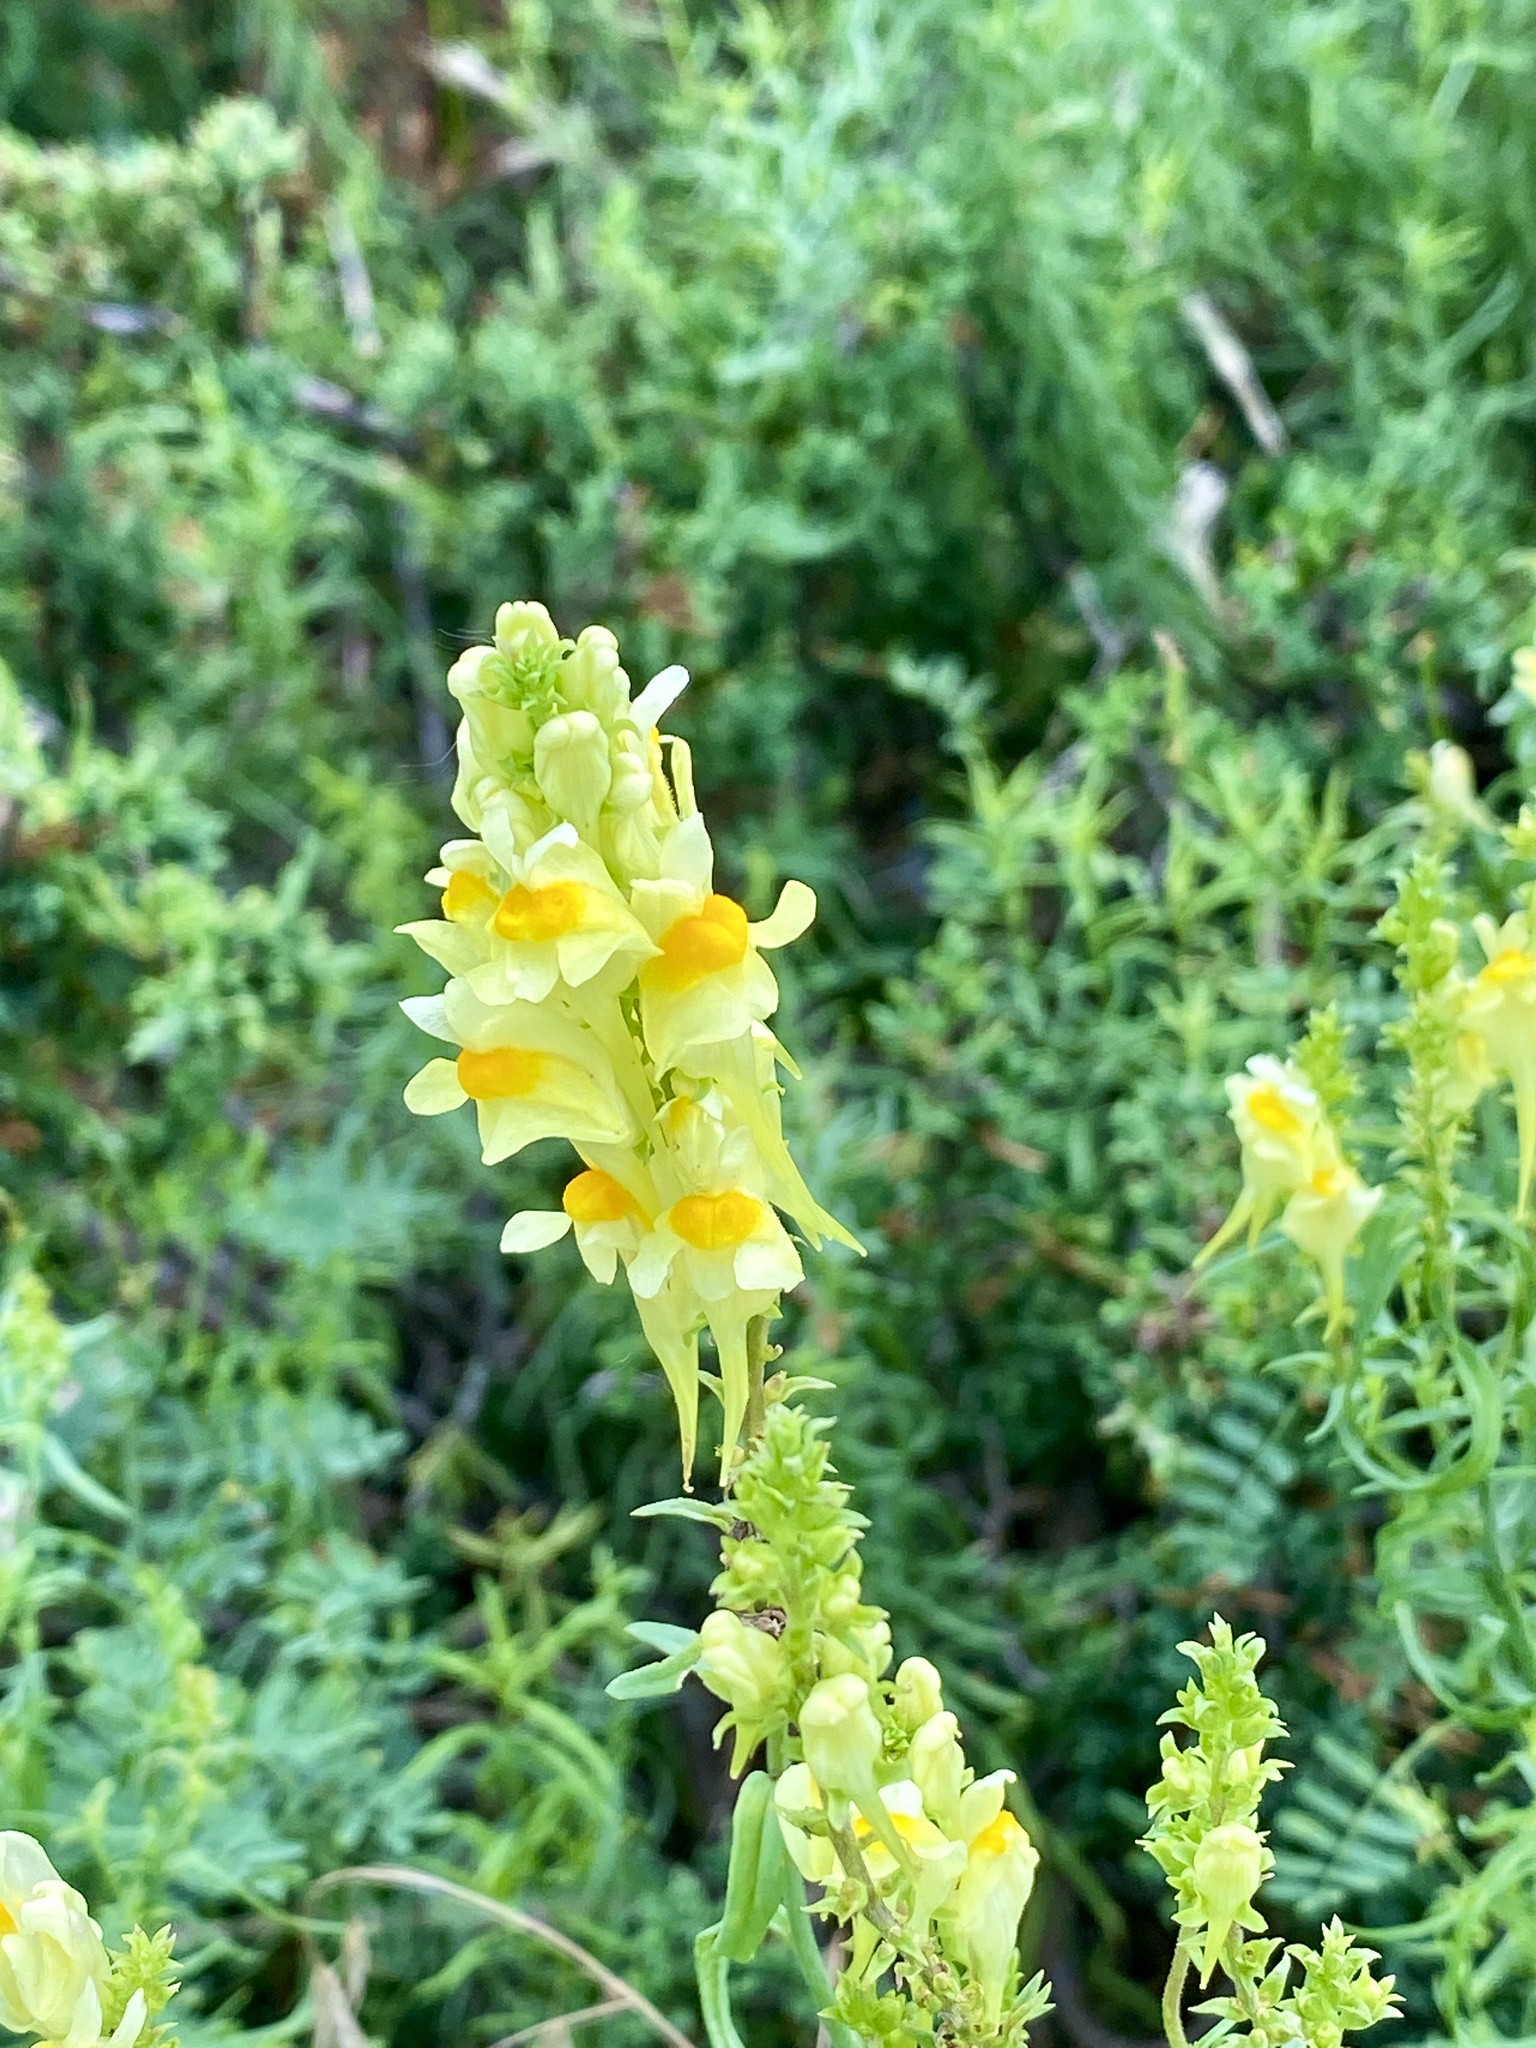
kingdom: Plantae
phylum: Tracheophyta
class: Magnoliopsida
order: Lamiales
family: Plantaginaceae
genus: Linaria
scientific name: Linaria vulgaris
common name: Butter and eggs
